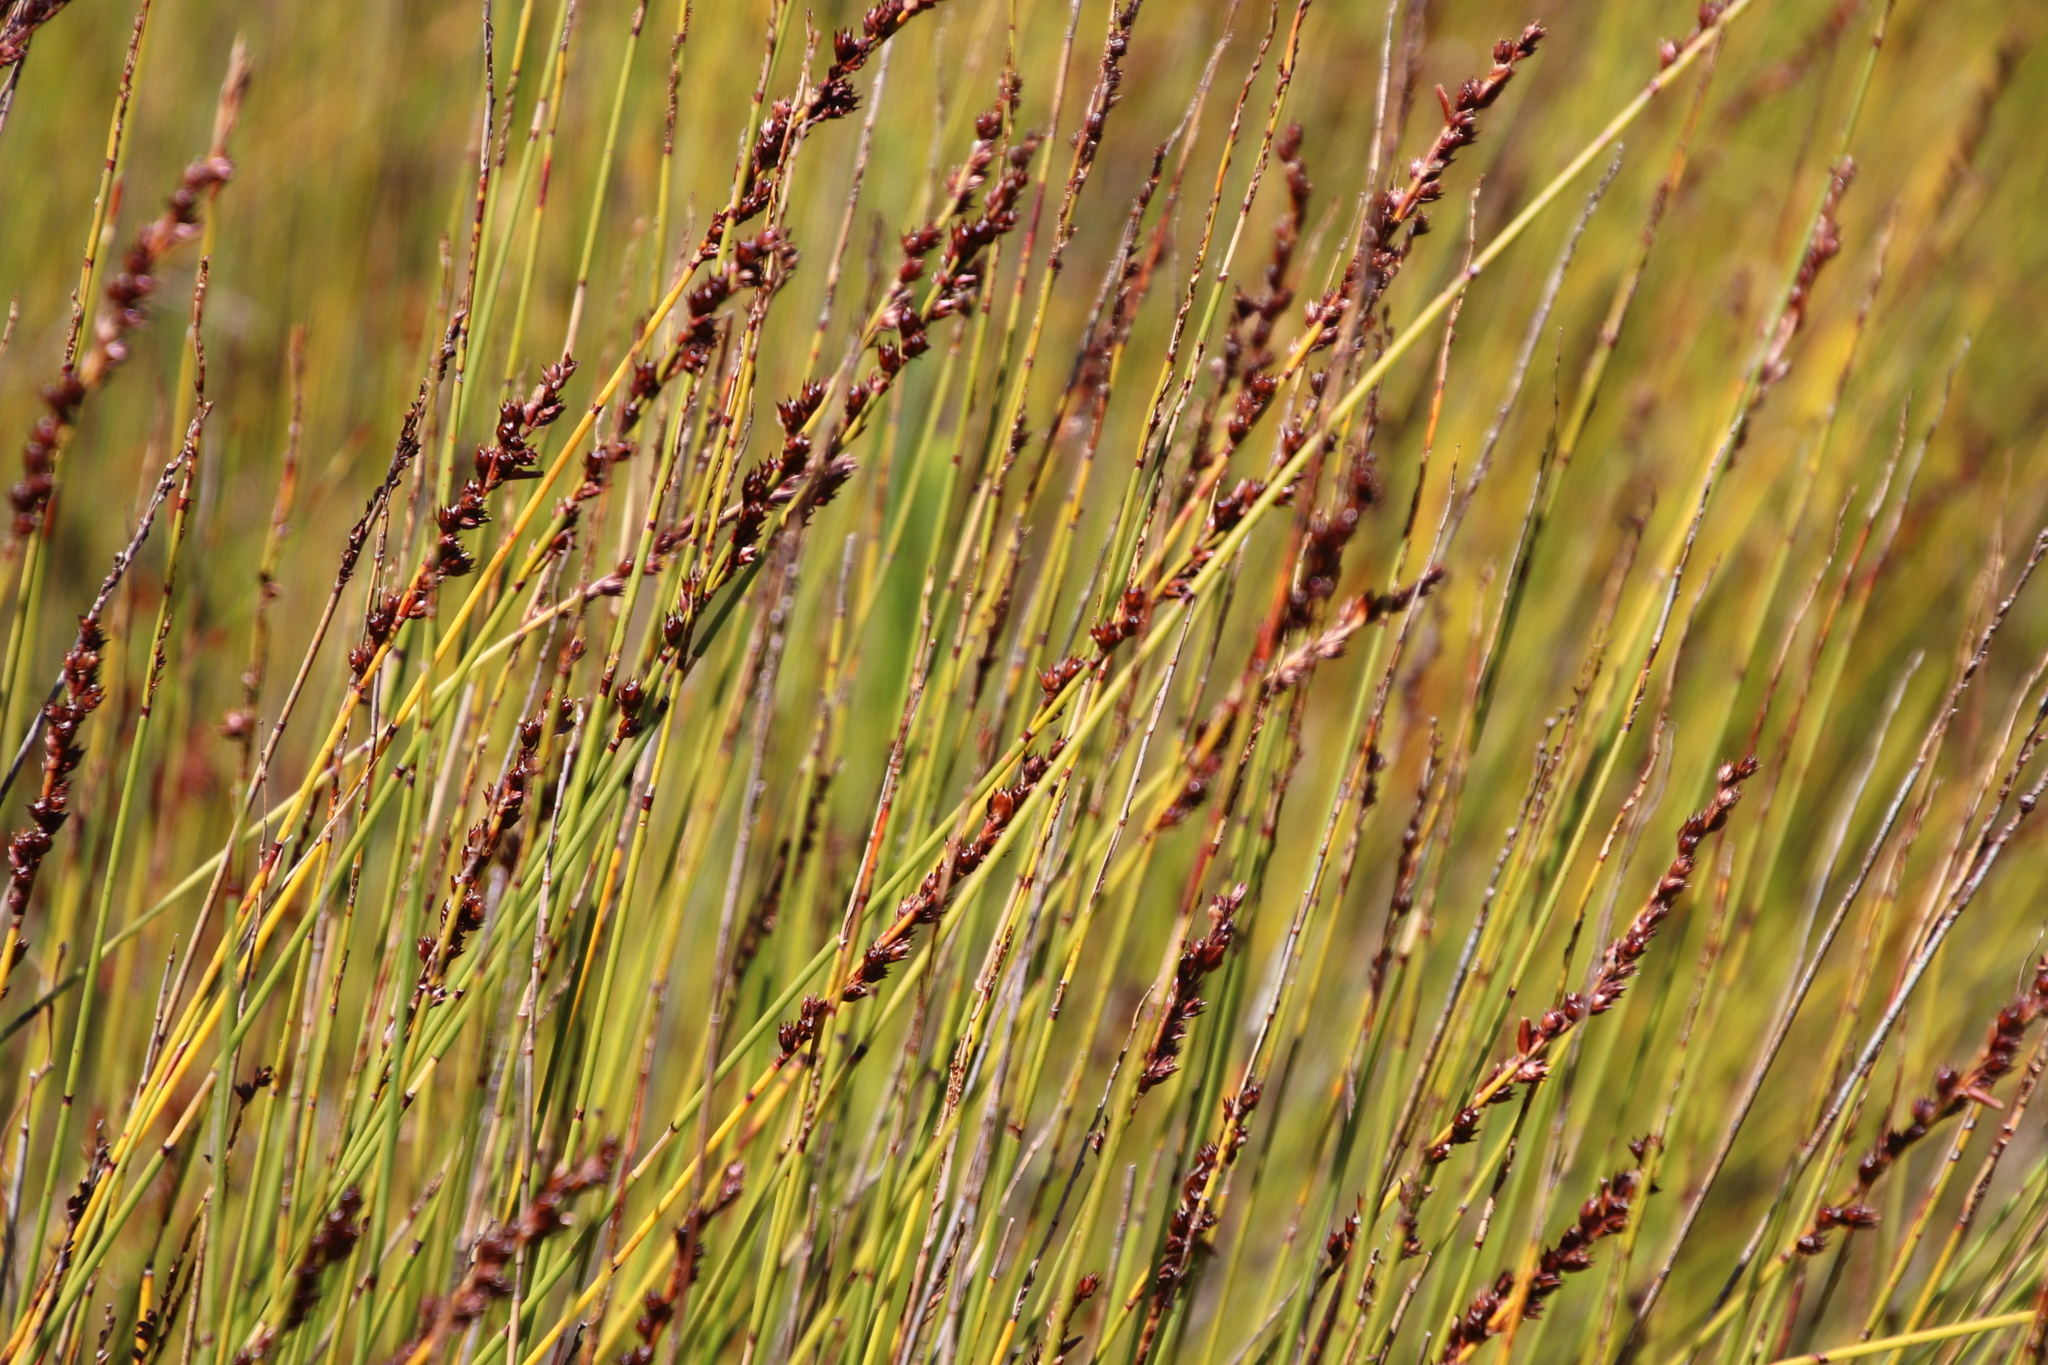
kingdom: Plantae
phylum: Tracheophyta
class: Liliopsida
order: Poales
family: Restionaceae
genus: Elegia
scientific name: Elegia hookeriana
